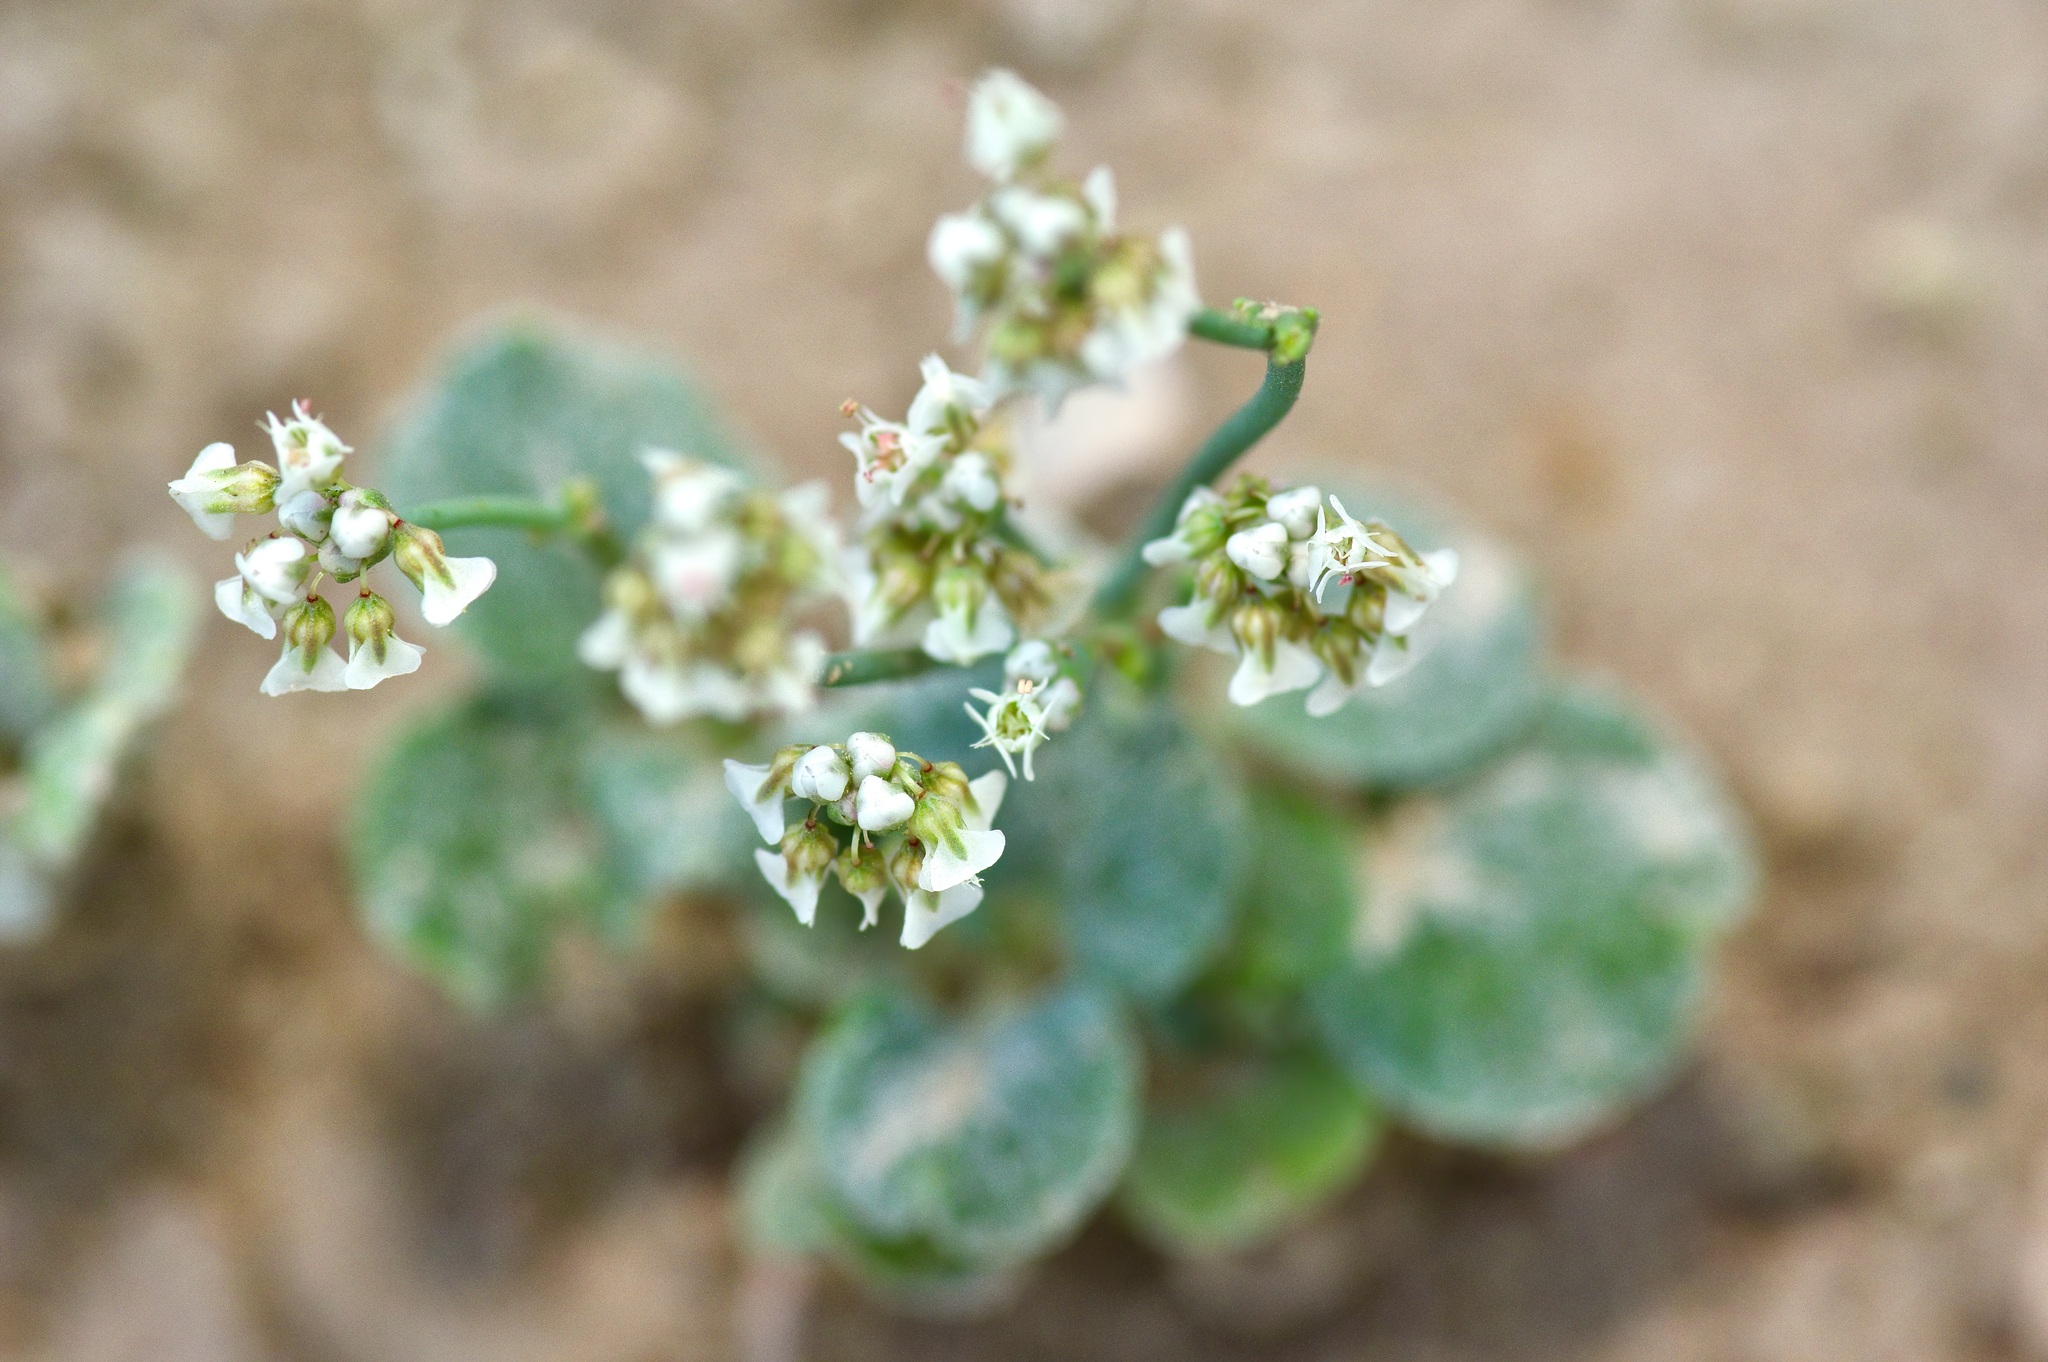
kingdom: Plantae
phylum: Tracheophyta
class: Magnoliopsida
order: Caryophyllales
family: Polygonaceae
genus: Eriogonum
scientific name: Eriogonum rotundifolium
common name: Round-leaf wild buckwheat
